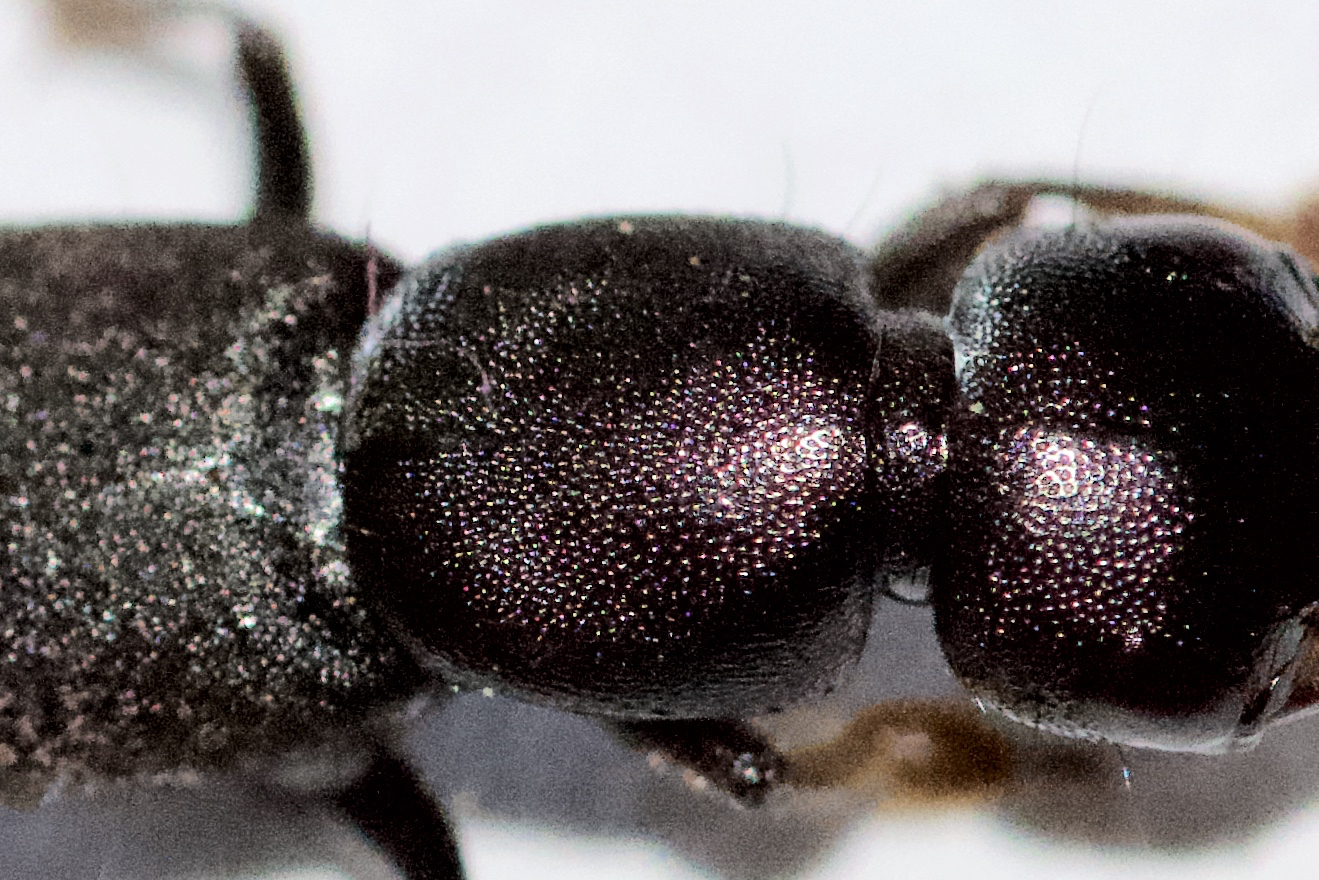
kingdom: Animalia
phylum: Arthropoda
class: Insecta
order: Coleoptera
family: Staphylinidae
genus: Tasgius
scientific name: Tasgius winkleri
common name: Staph beetle
